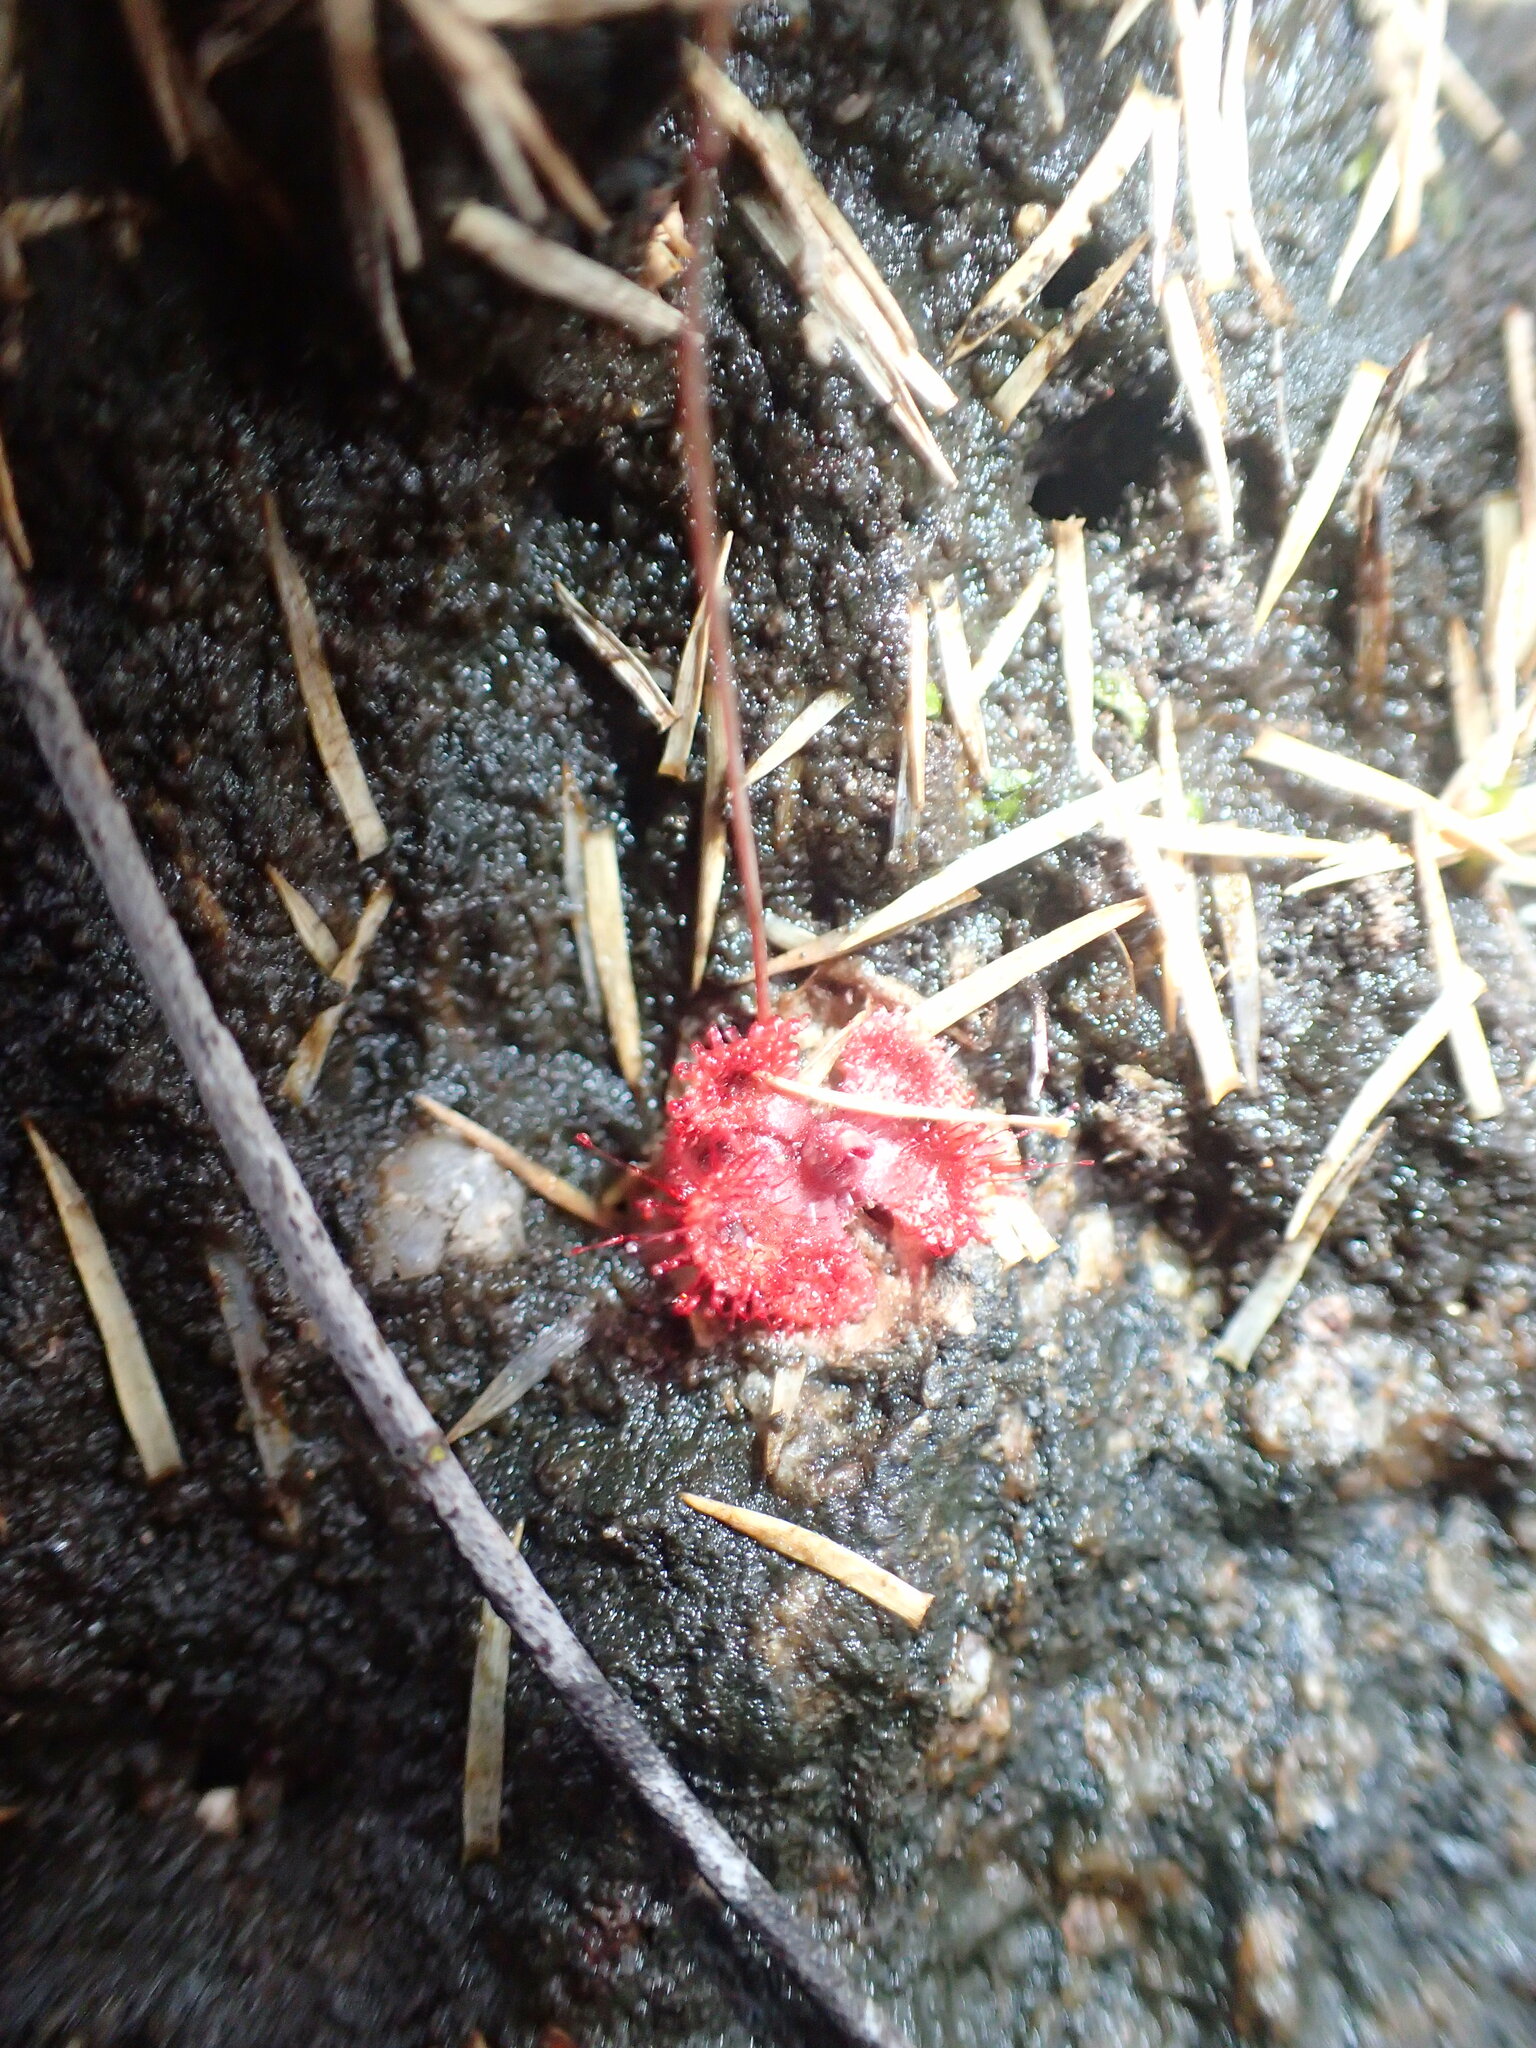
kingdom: Plantae
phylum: Tracheophyta
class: Magnoliopsida
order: Caryophyllales
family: Droseraceae
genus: Drosera
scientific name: Drosera spatulata
